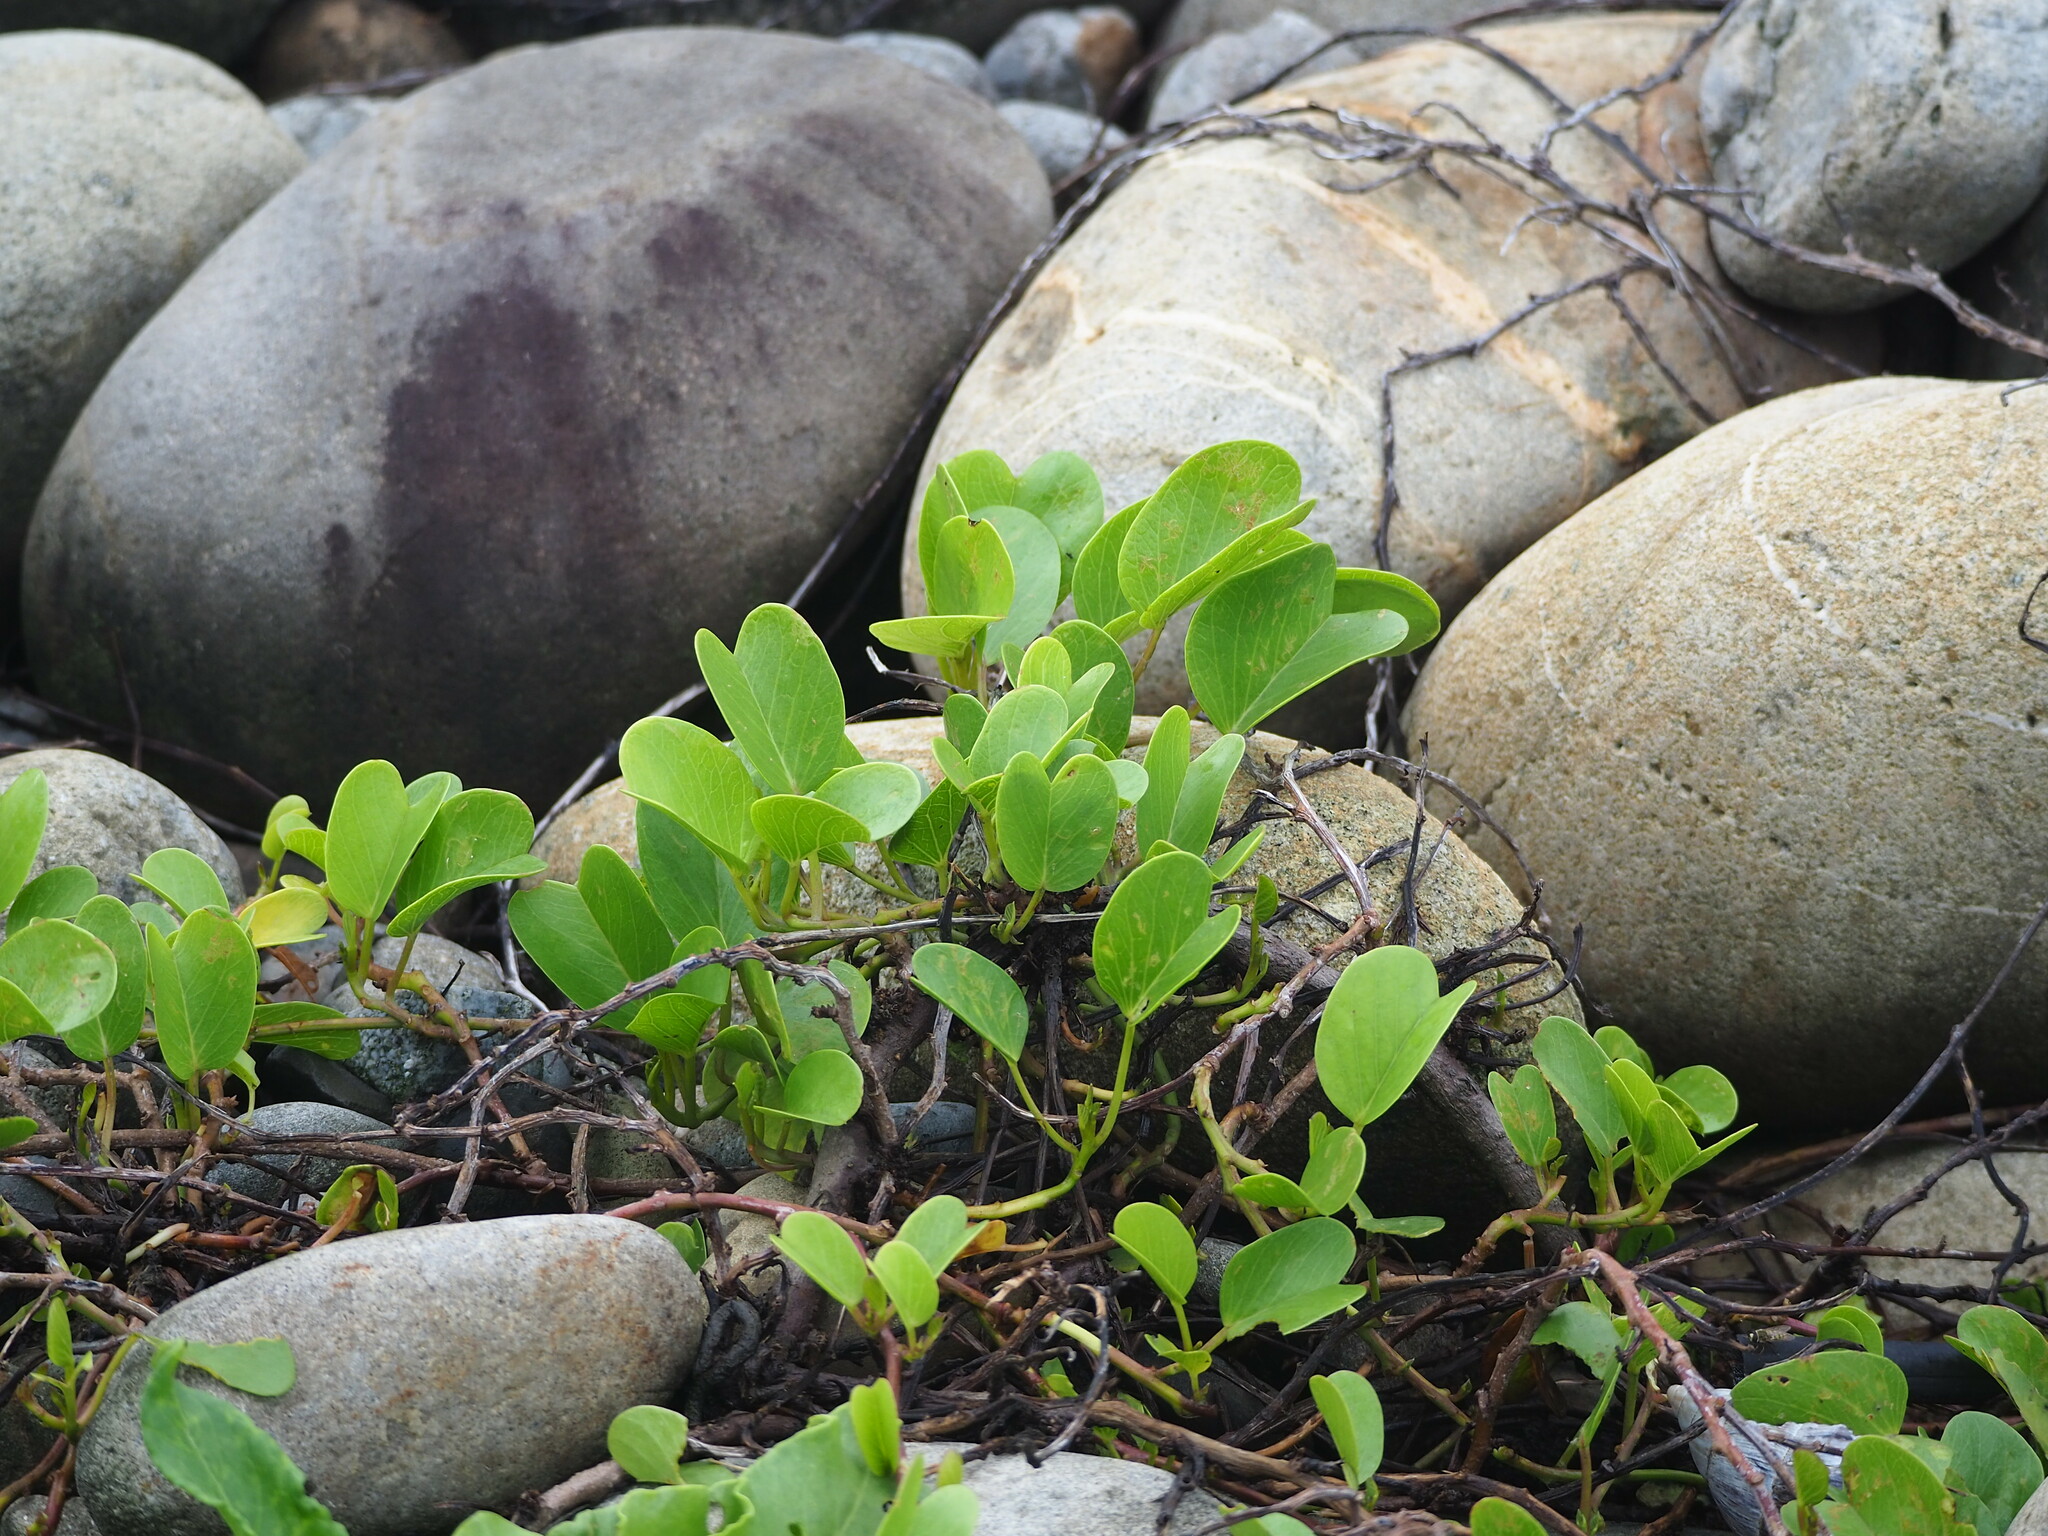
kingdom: Plantae
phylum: Tracheophyta
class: Magnoliopsida
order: Solanales
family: Convolvulaceae
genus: Ipomoea
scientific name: Ipomoea pes-caprae
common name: Beach morning glory
